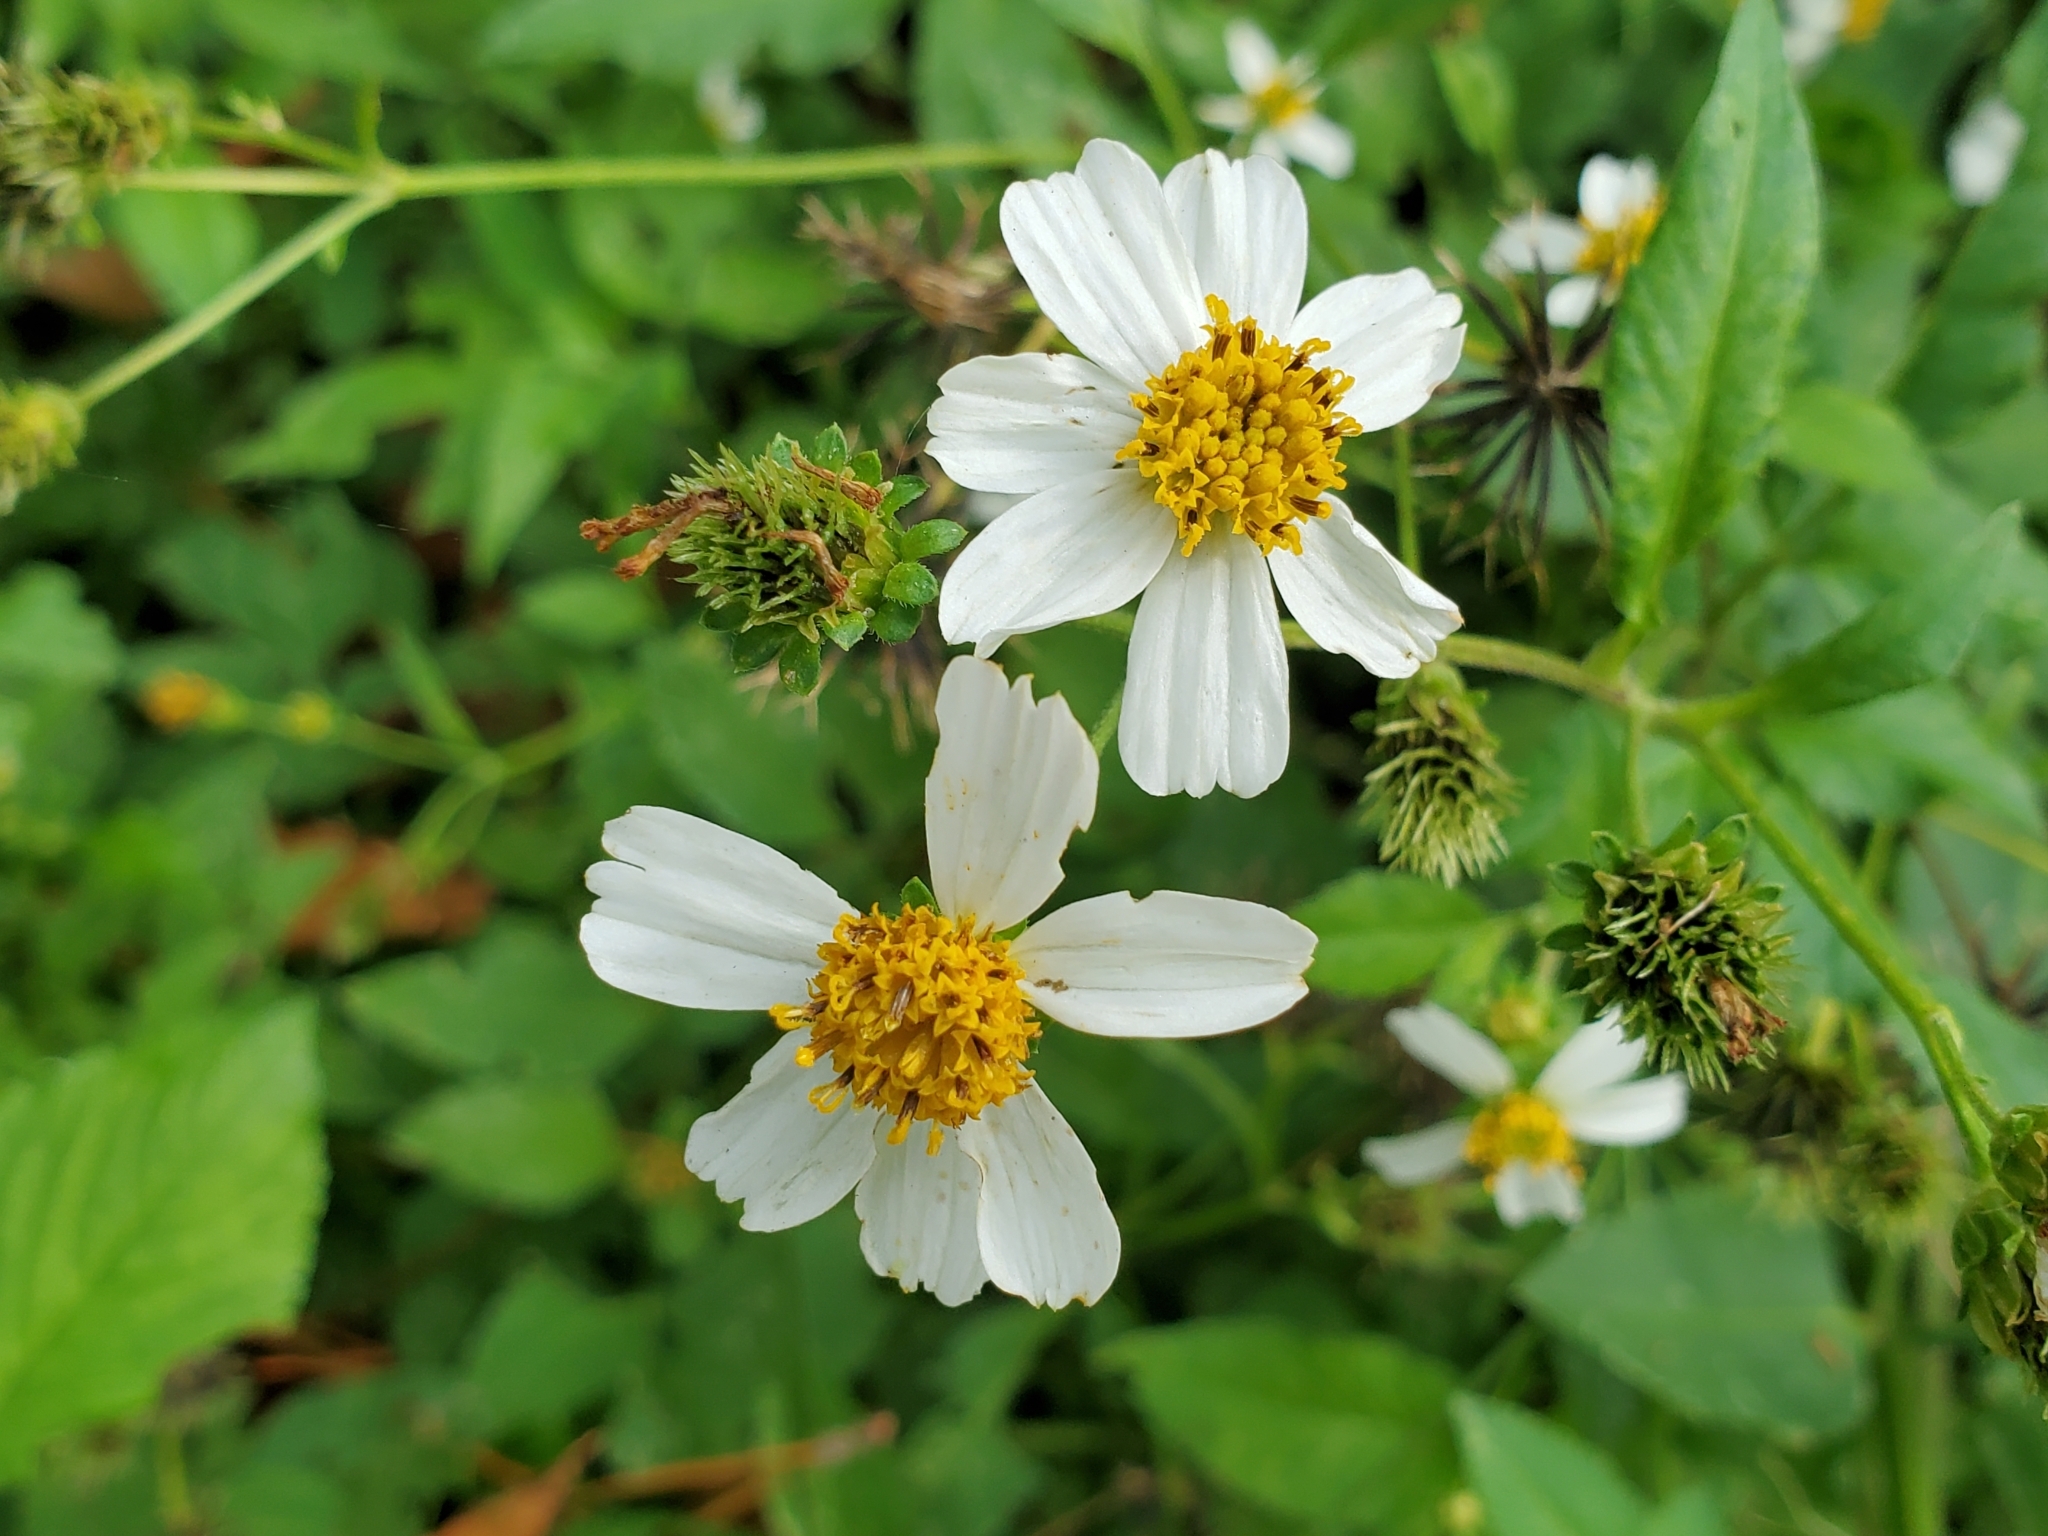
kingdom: Plantae
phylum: Tracheophyta
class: Magnoliopsida
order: Asterales
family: Asteraceae
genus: Bidens
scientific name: Bidens alba
